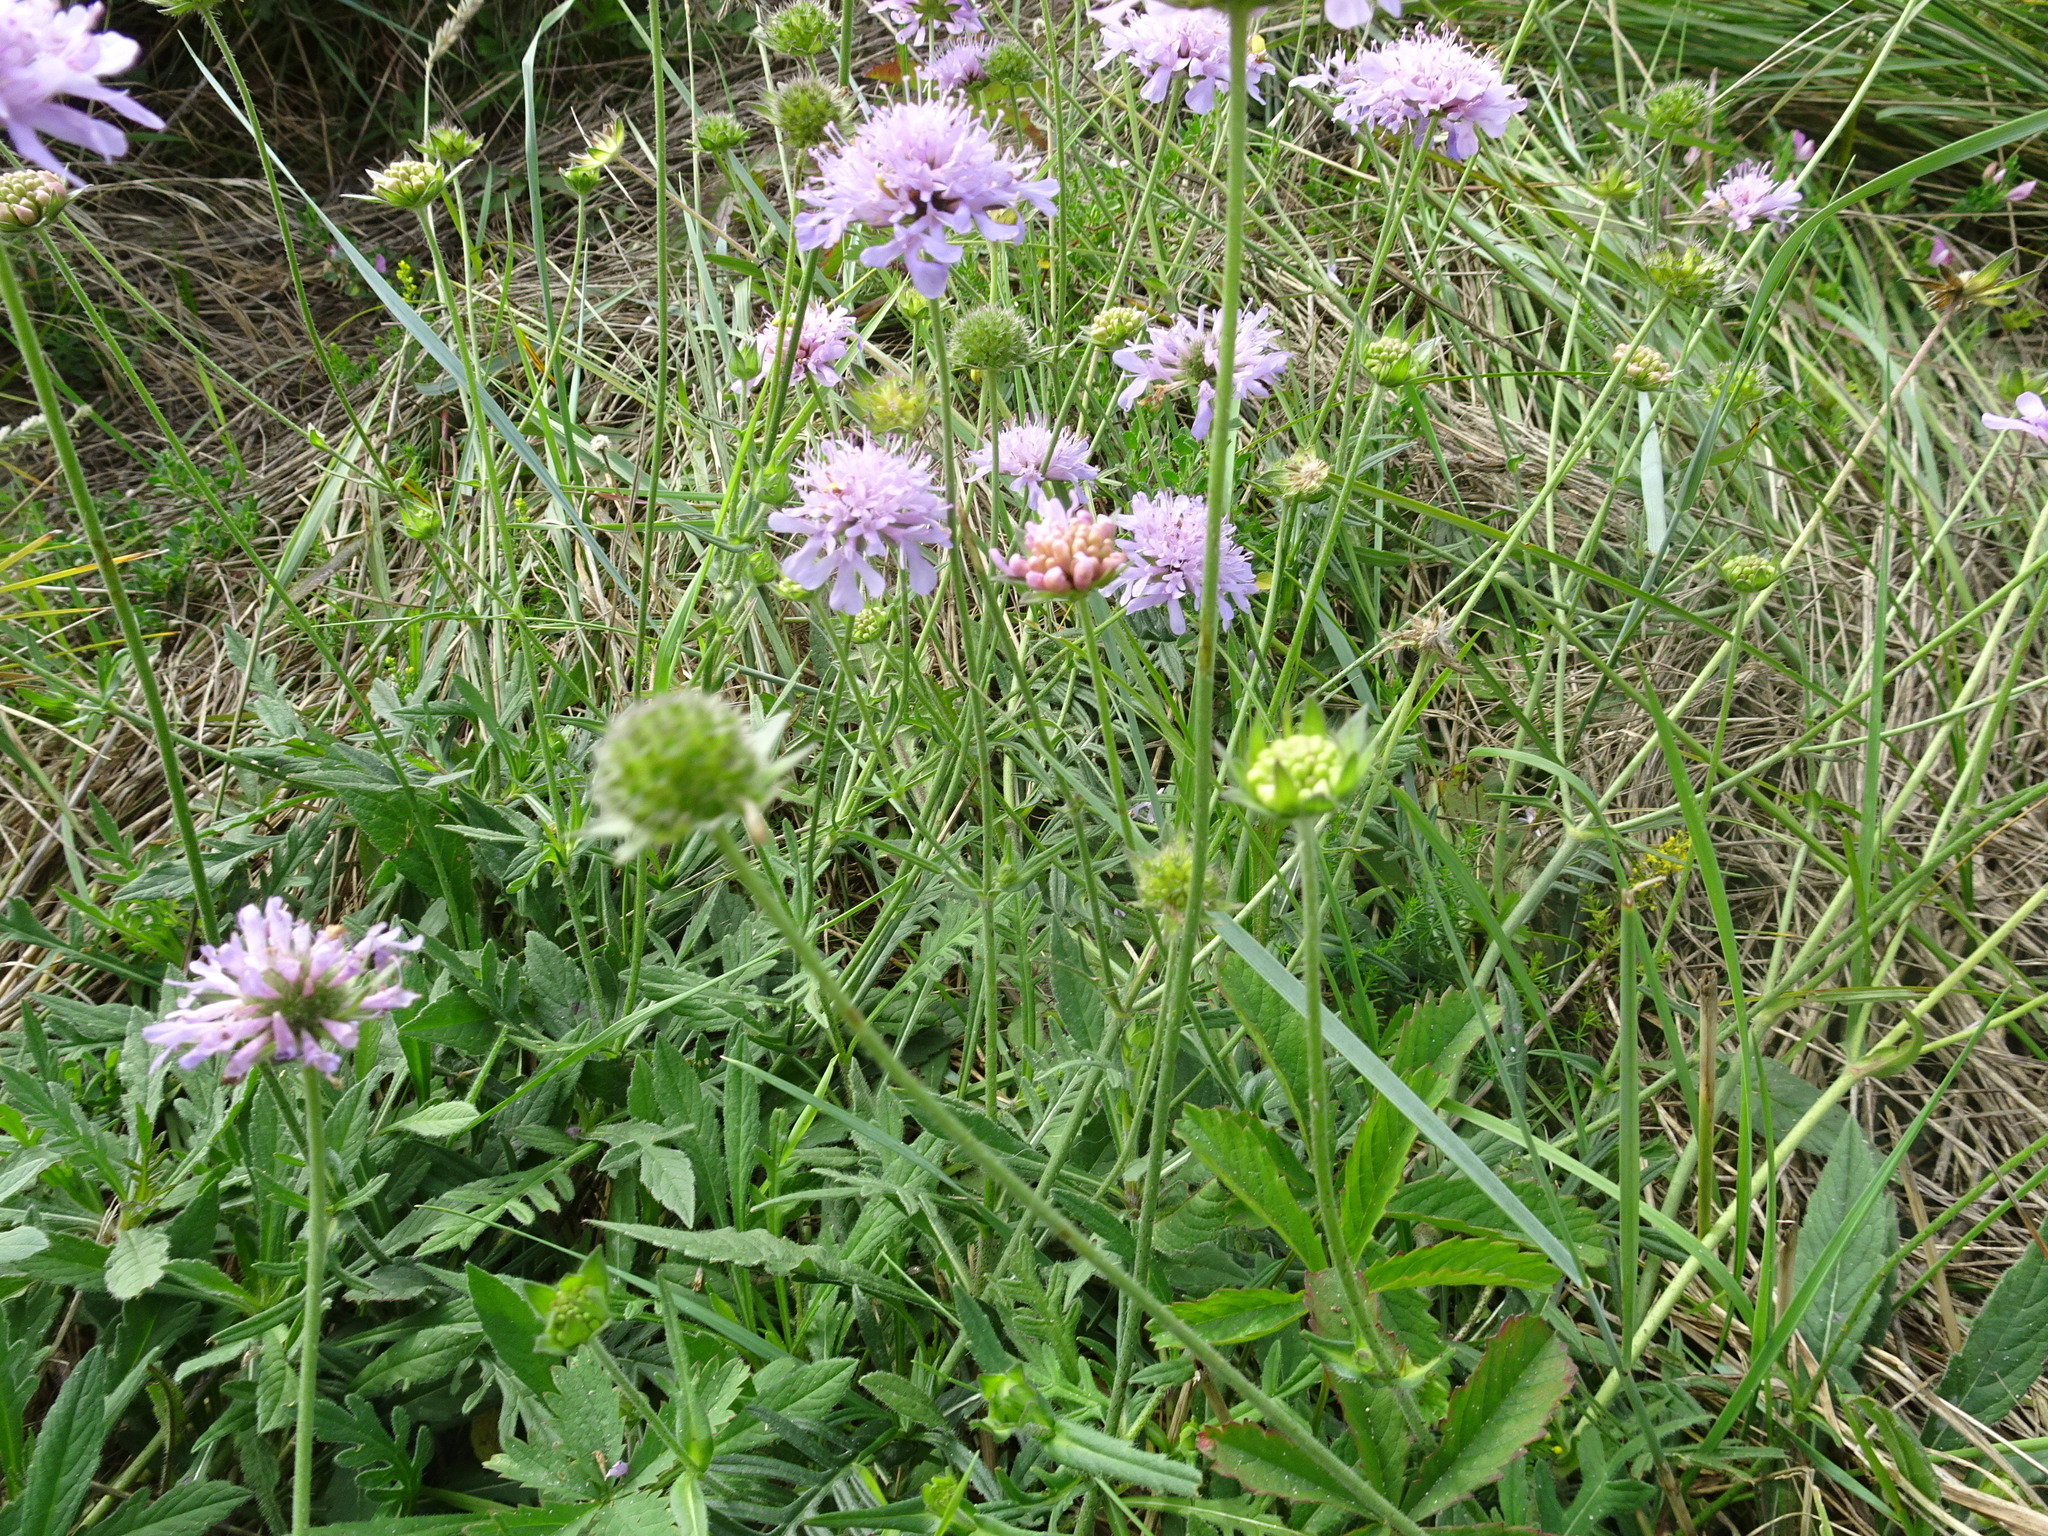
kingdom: Plantae
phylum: Tracheophyta
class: Magnoliopsida
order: Dipsacales
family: Caprifoliaceae
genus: Knautia
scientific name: Knautia arvensis
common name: Field scabiosa
